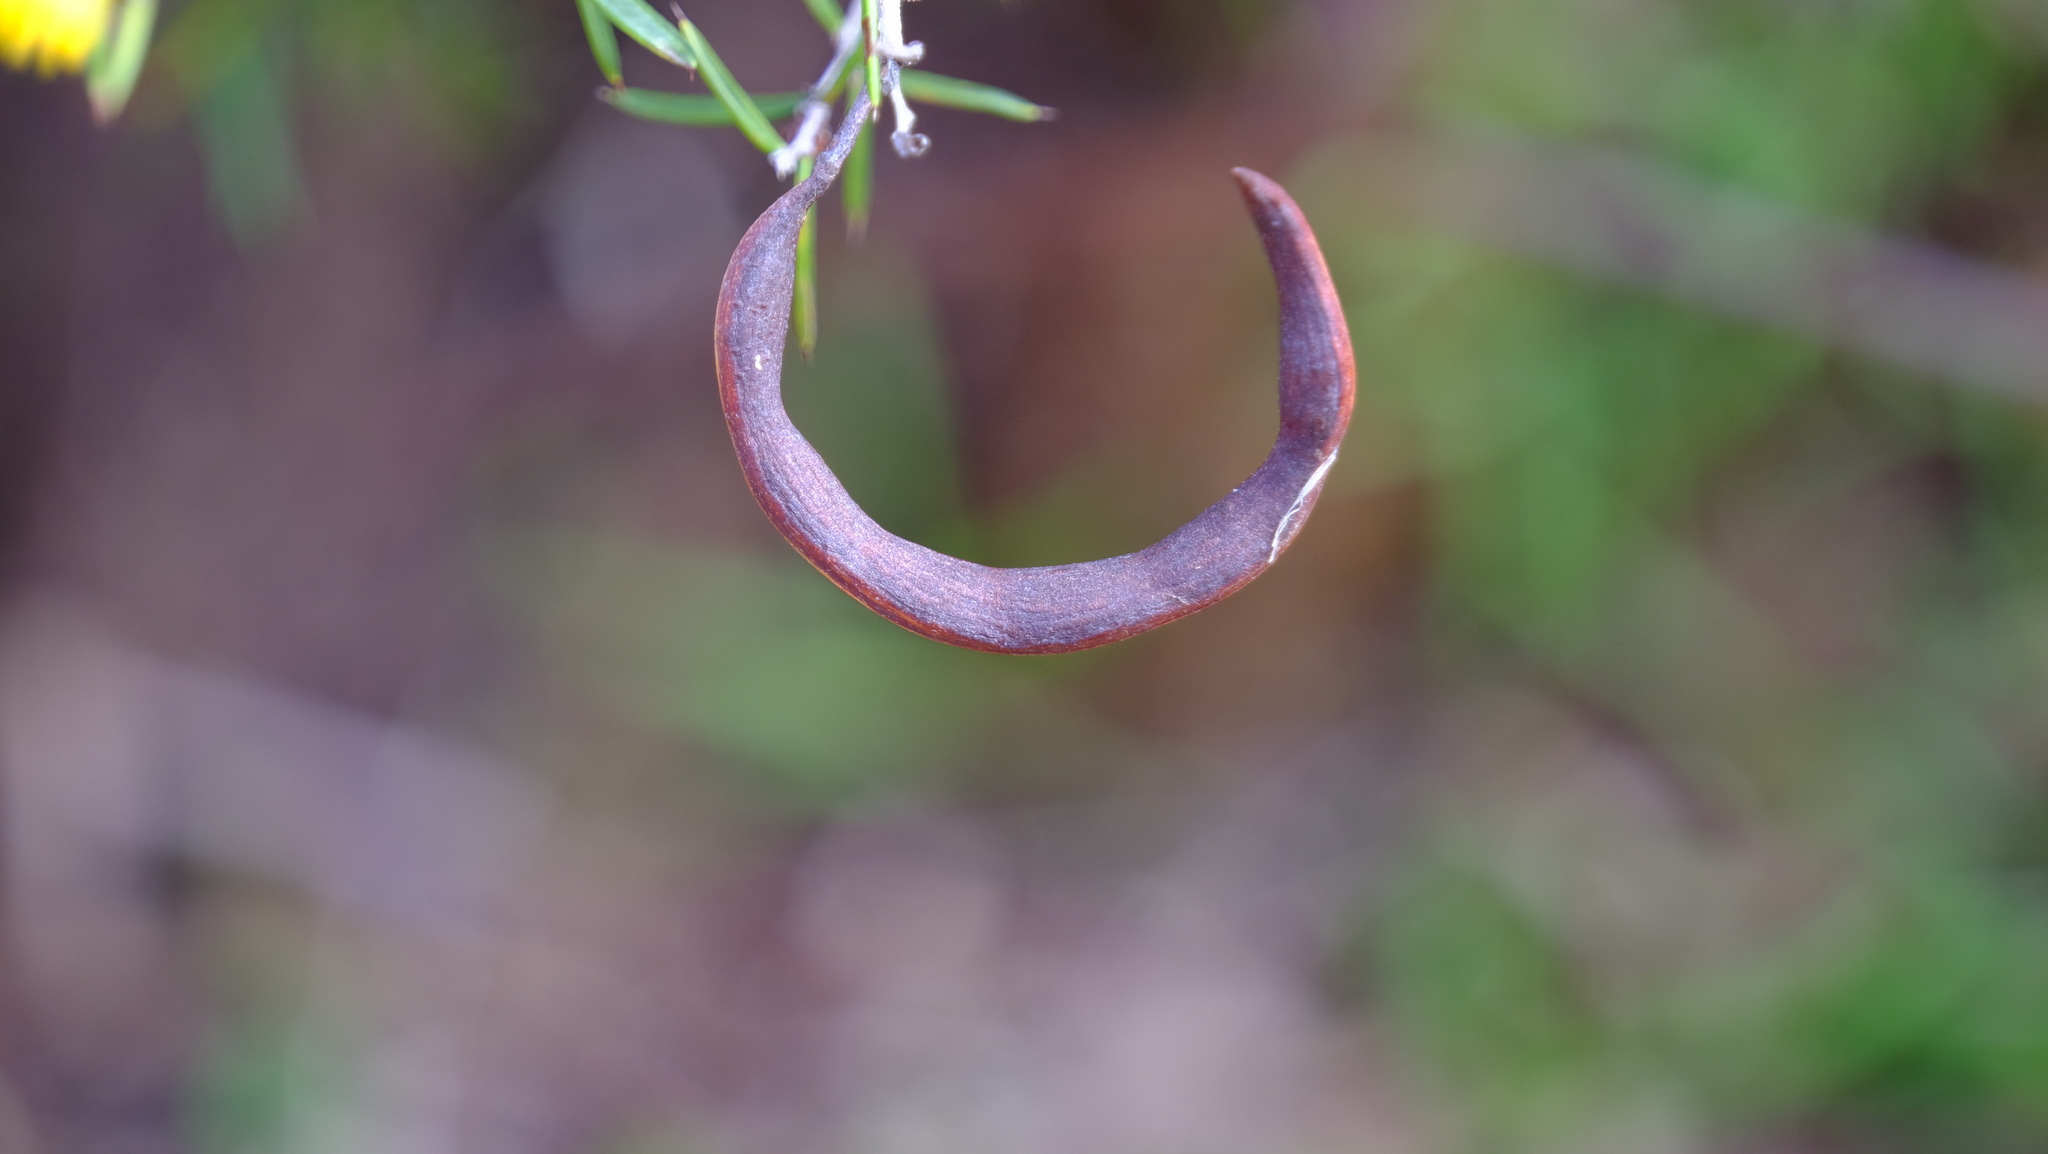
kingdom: Plantae
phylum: Tracheophyta
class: Magnoliopsida
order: Fabales
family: Fabaceae
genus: Acacia
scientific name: Acacia andrewsii
